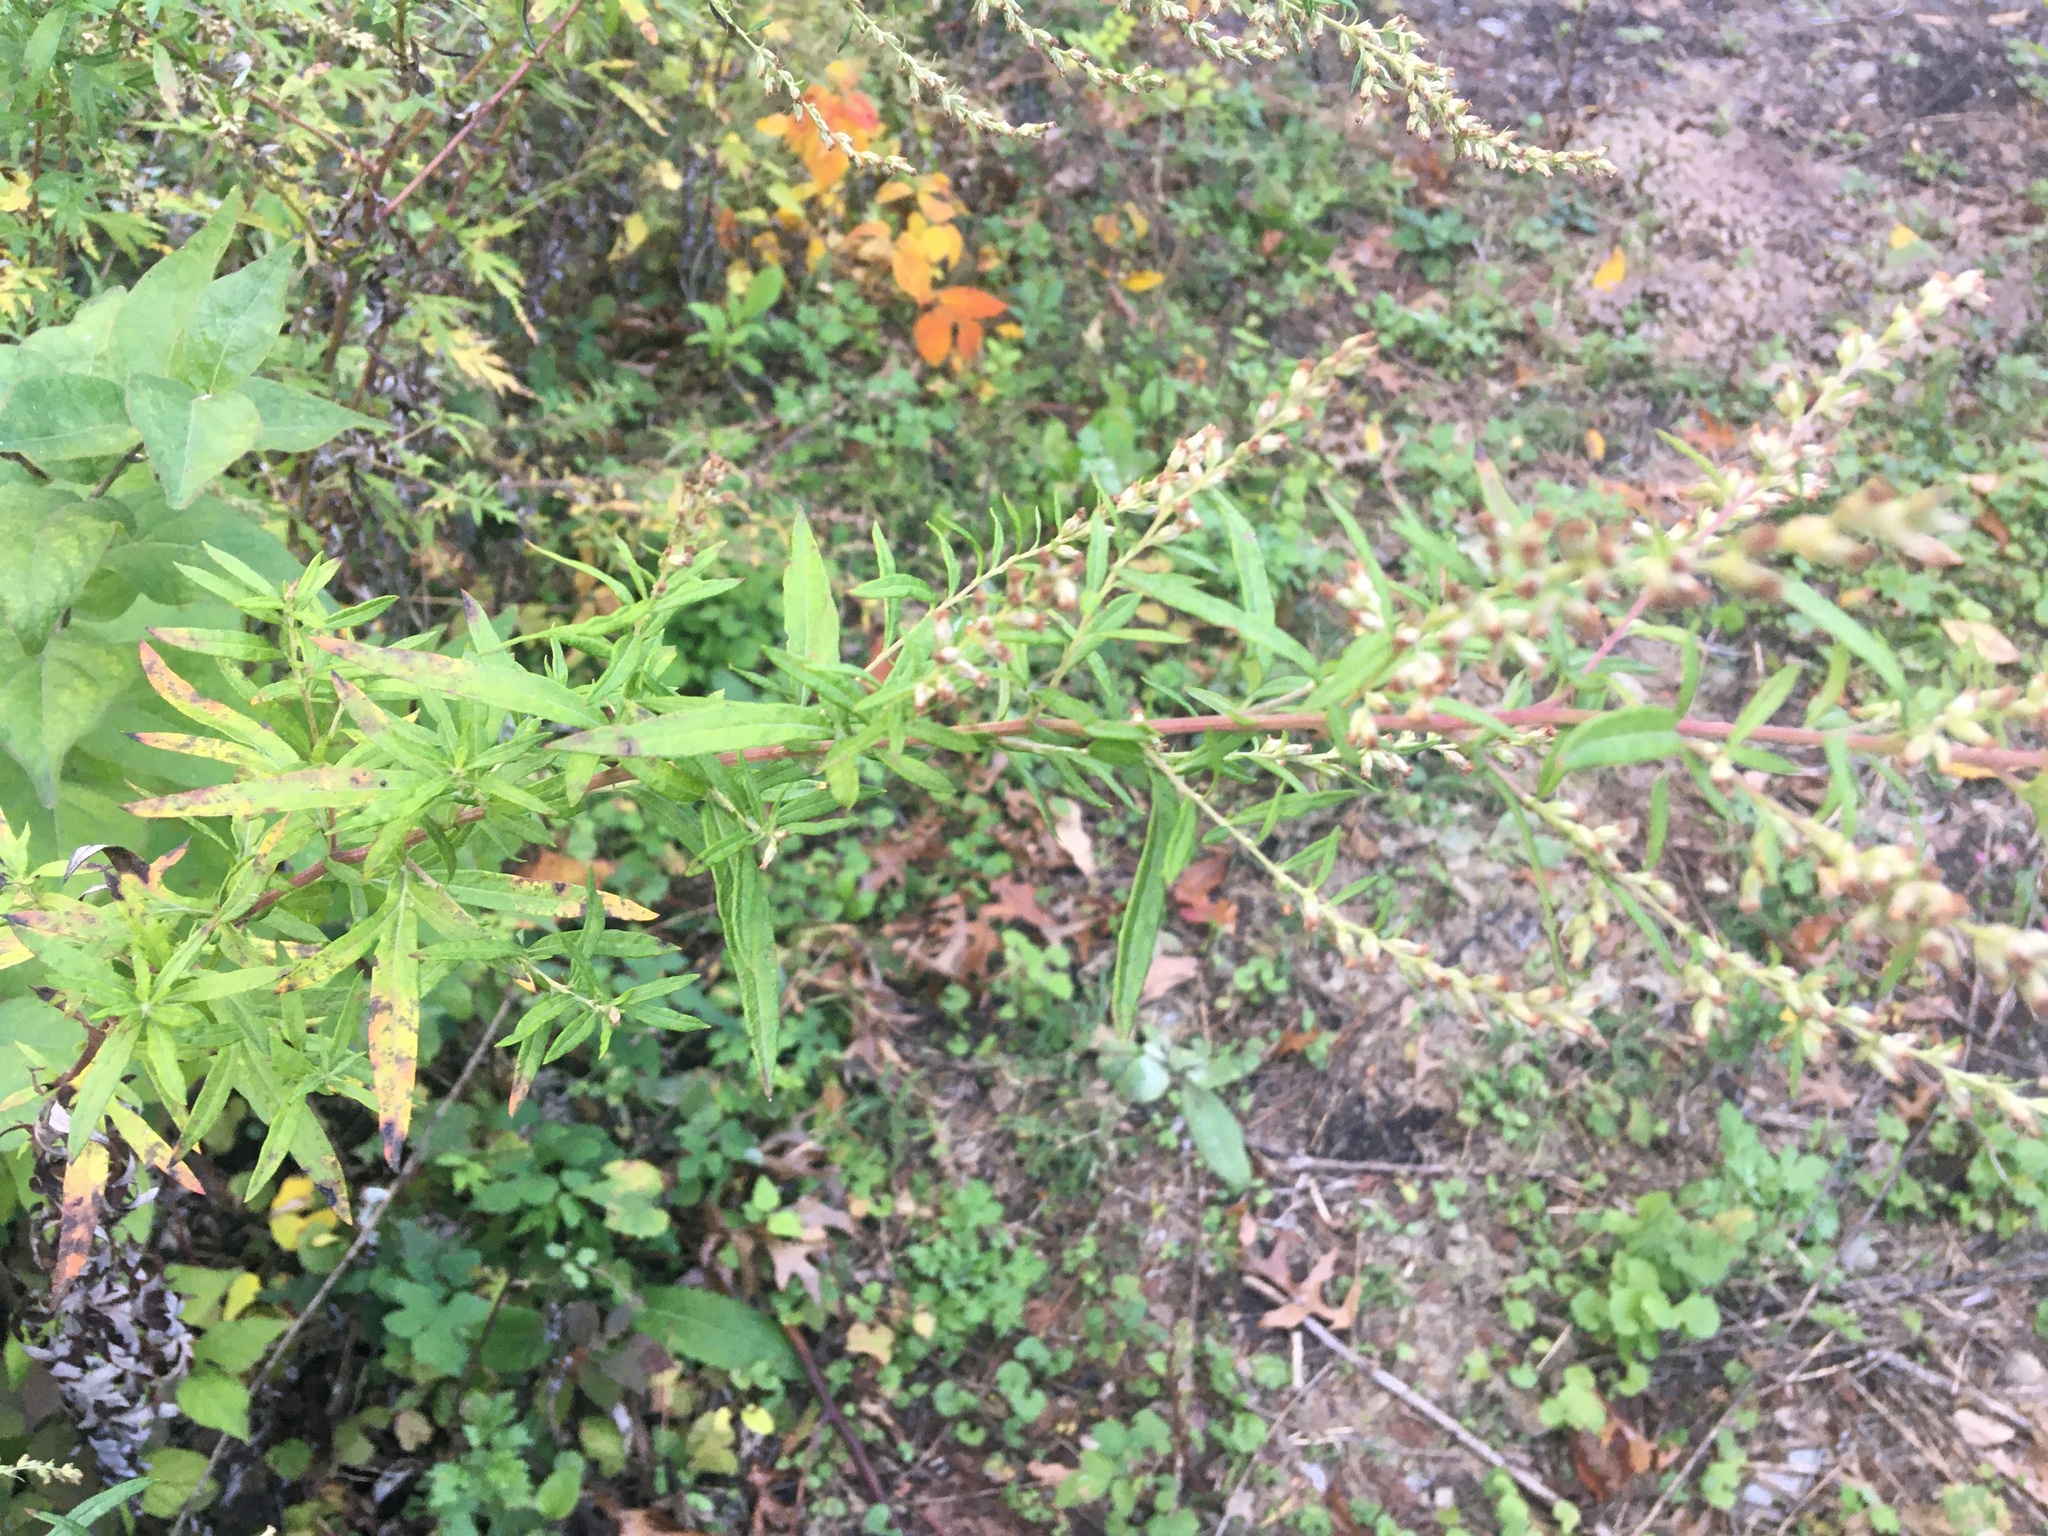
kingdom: Plantae
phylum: Tracheophyta
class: Magnoliopsida
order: Asterales
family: Asteraceae
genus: Artemisia
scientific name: Artemisia vulgaris
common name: Mugwort
